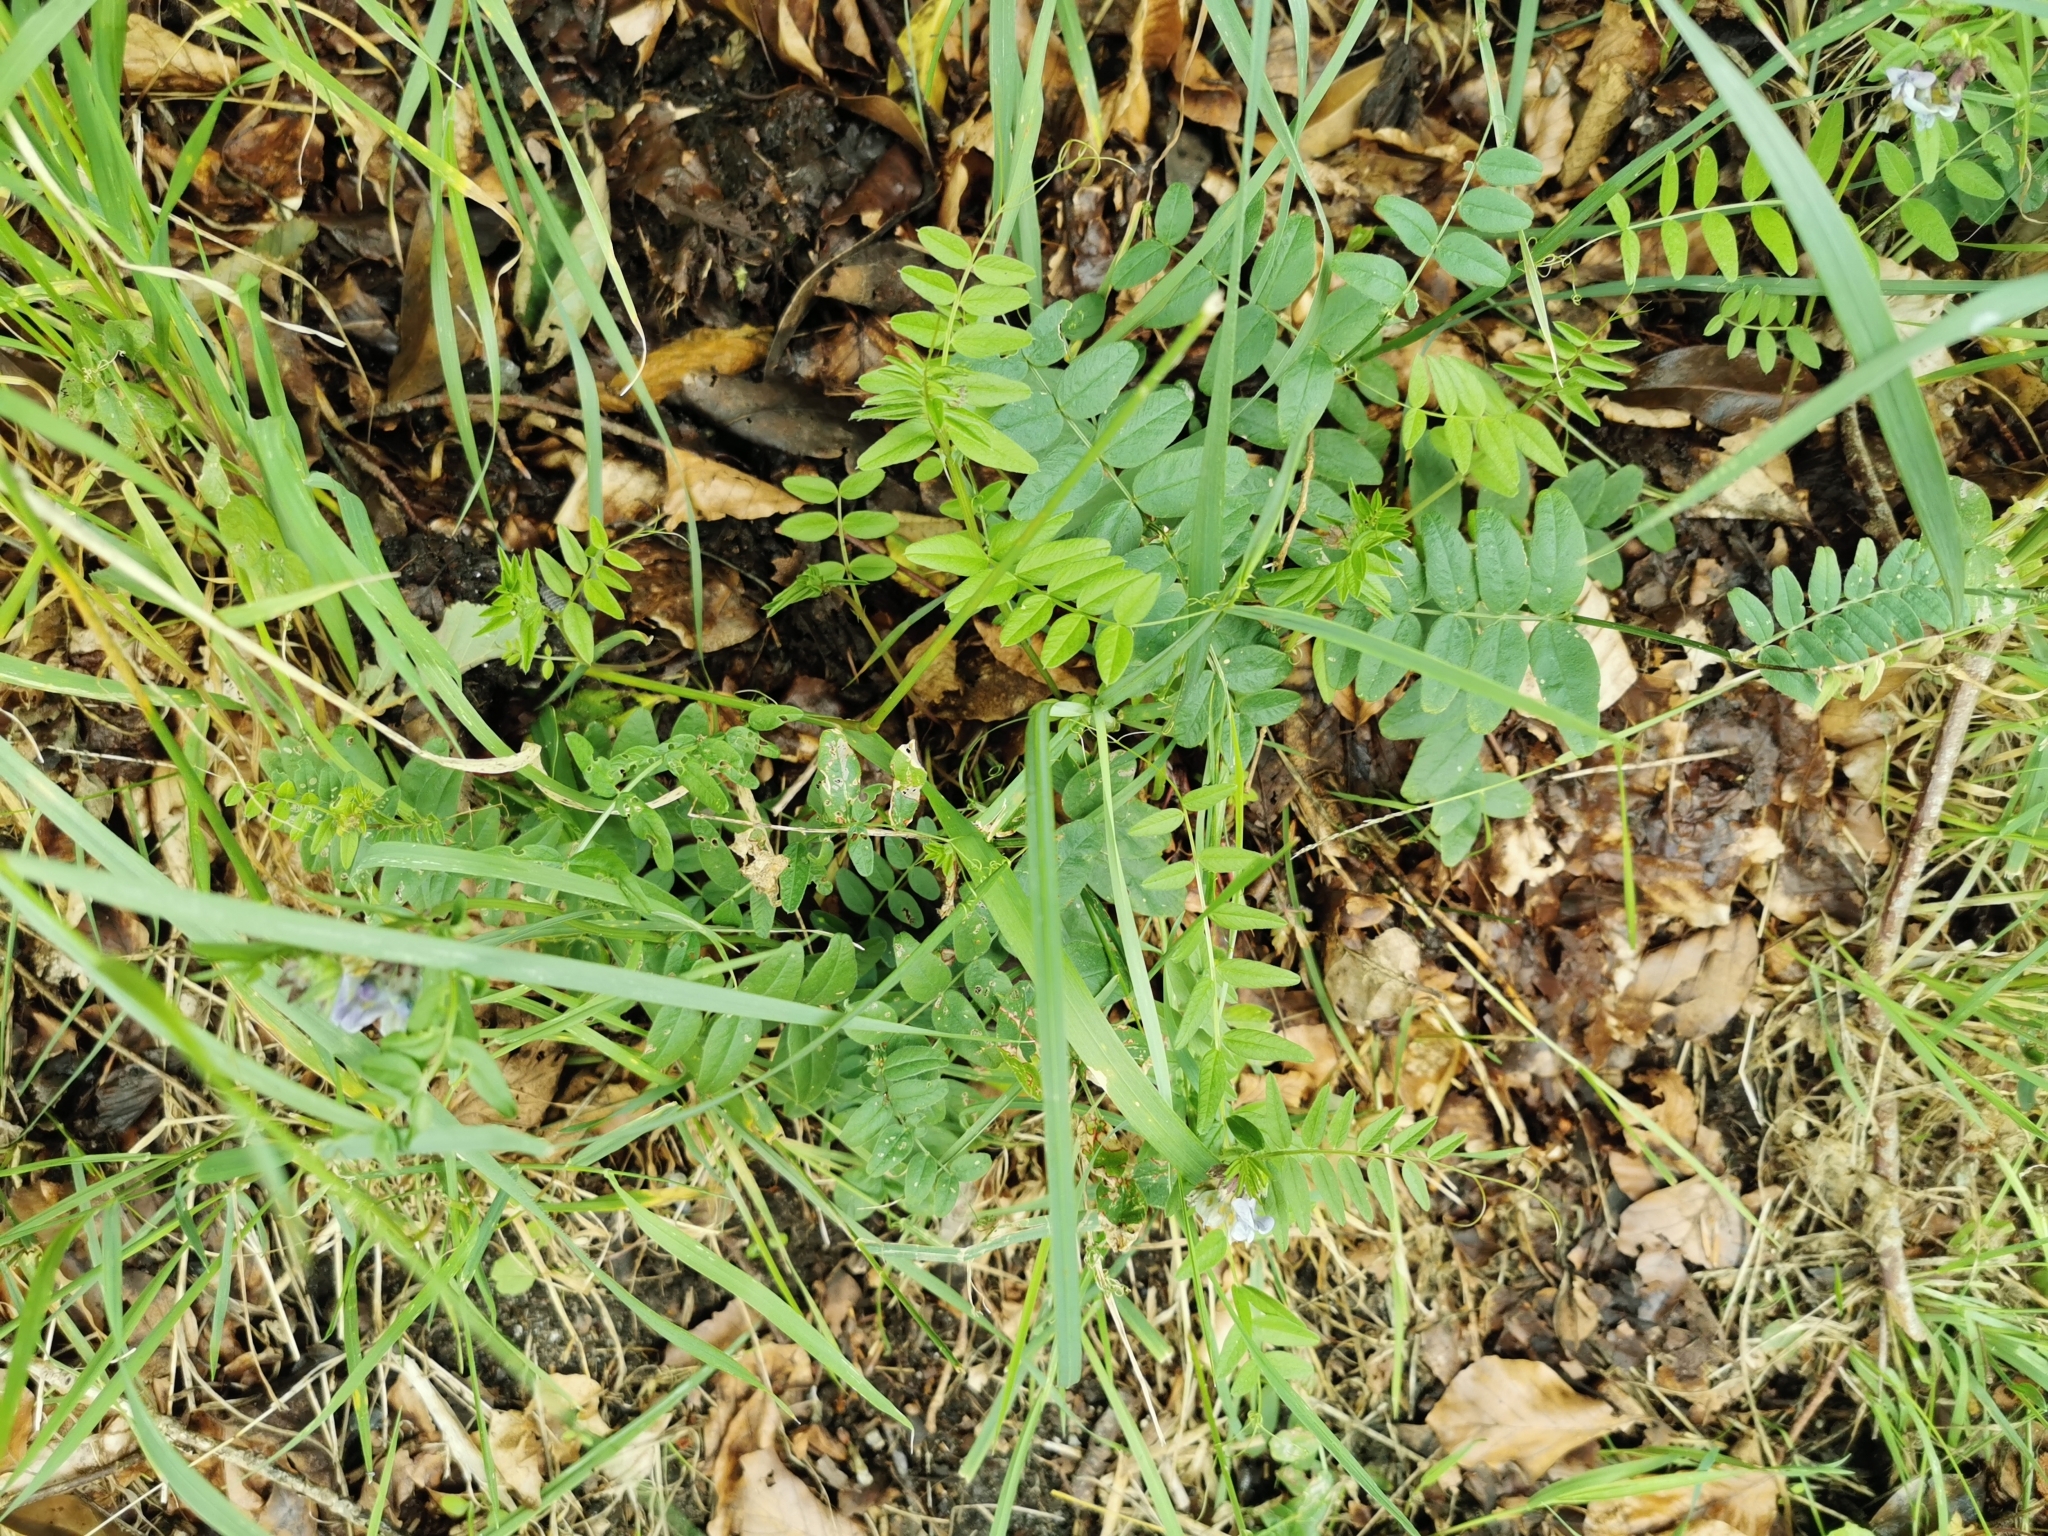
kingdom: Plantae
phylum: Tracheophyta
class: Magnoliopsida
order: Fabales
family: Fabaceae
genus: Vicia
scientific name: Vicia sepium
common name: Bush vetch
